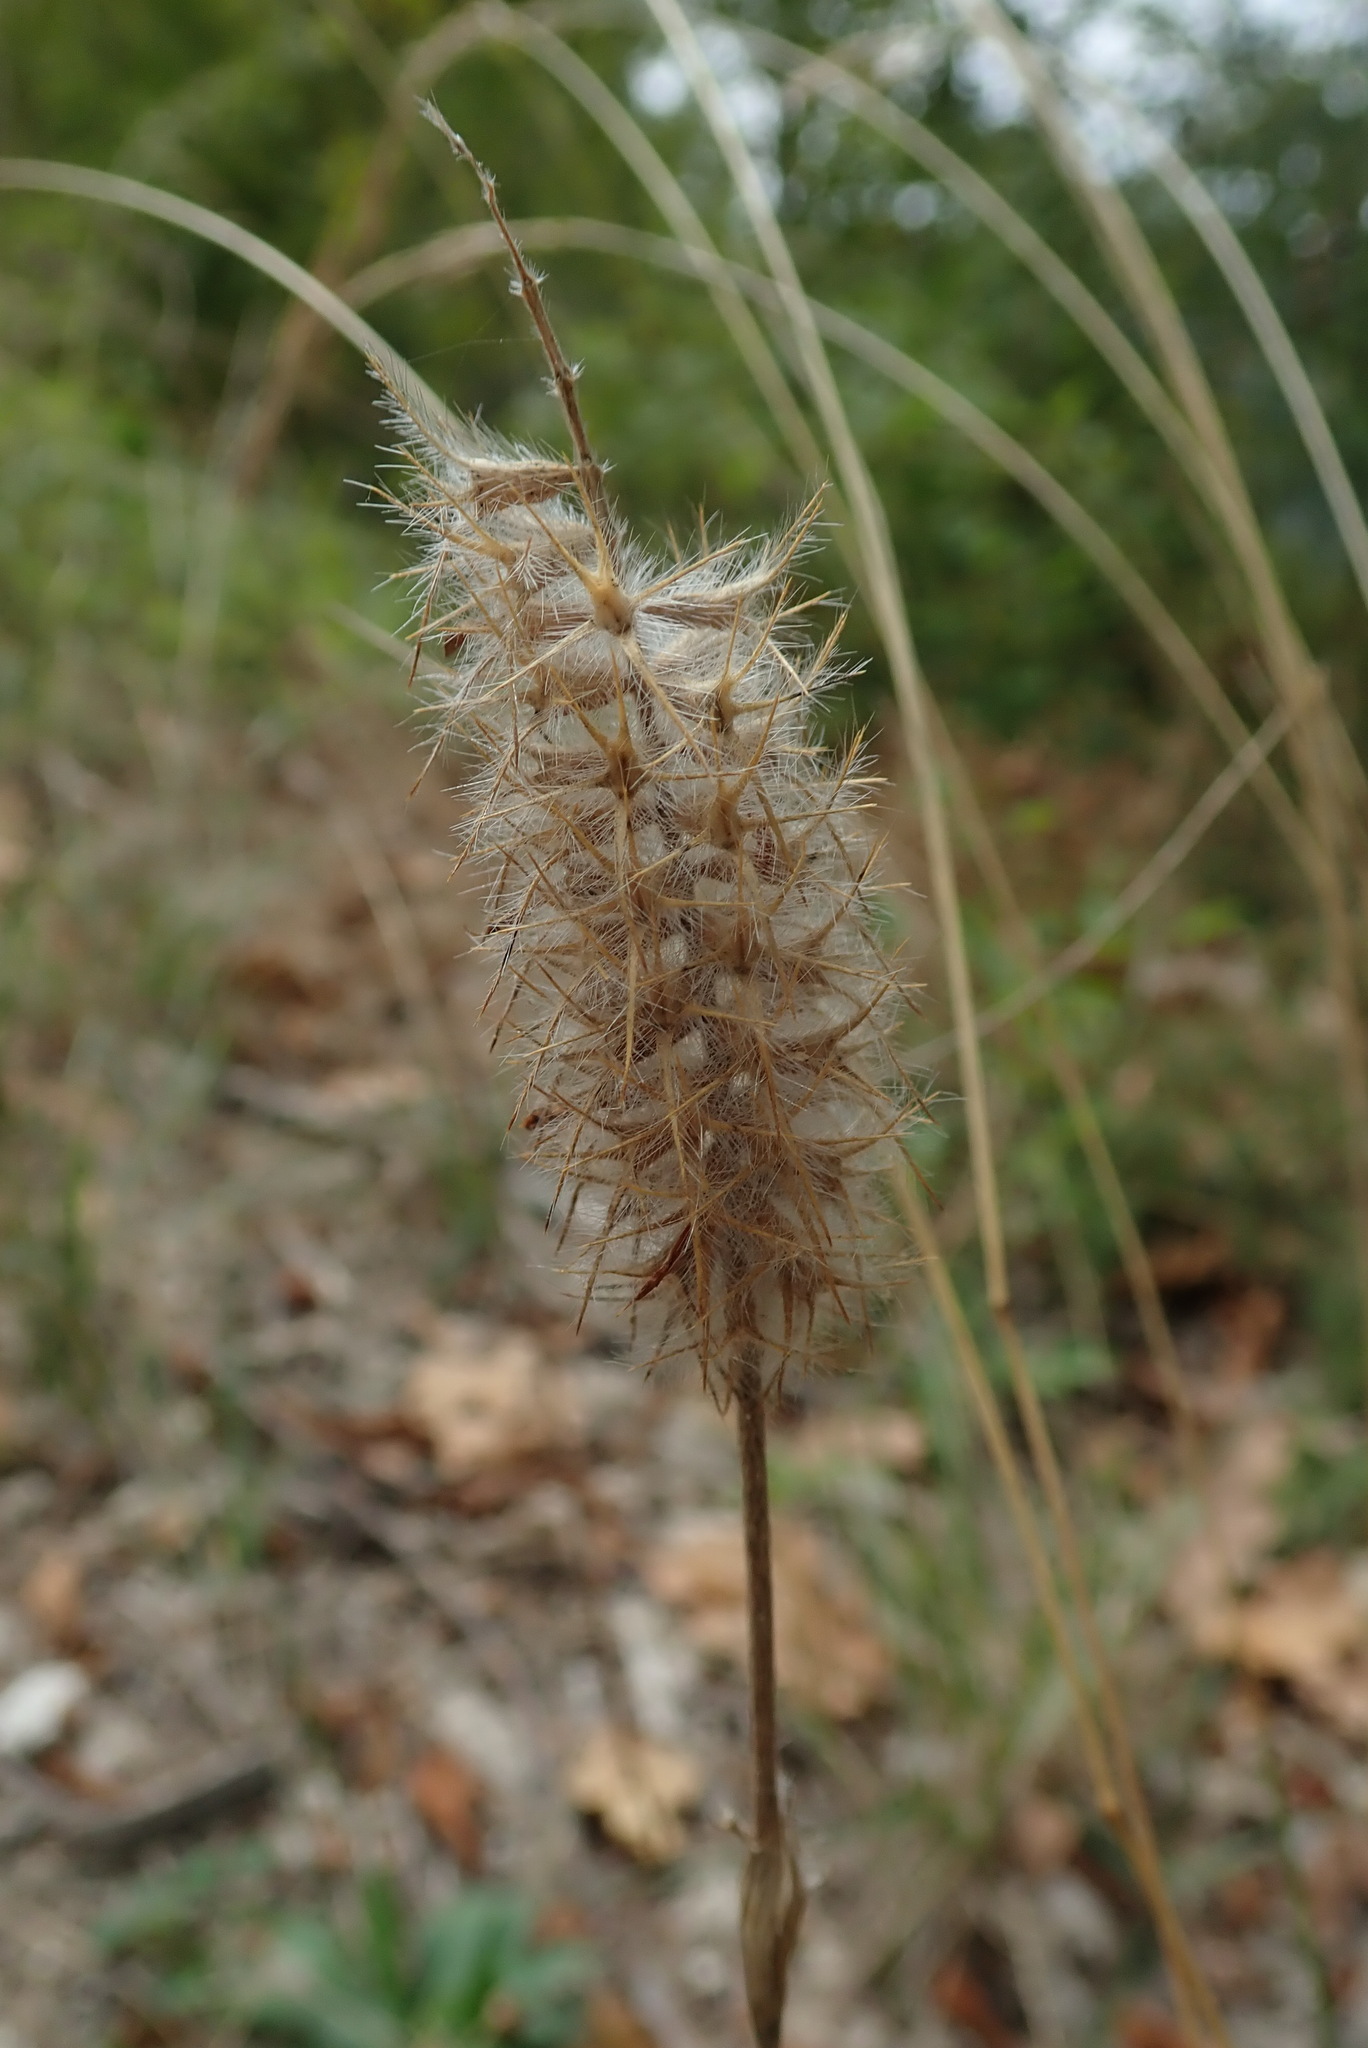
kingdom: Plantae
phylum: Tracheophyta
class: Magnoliopsida
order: Fabales
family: Fabaceae
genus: Trifolium
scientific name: Trifolium angustifolium
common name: Narrow clover
